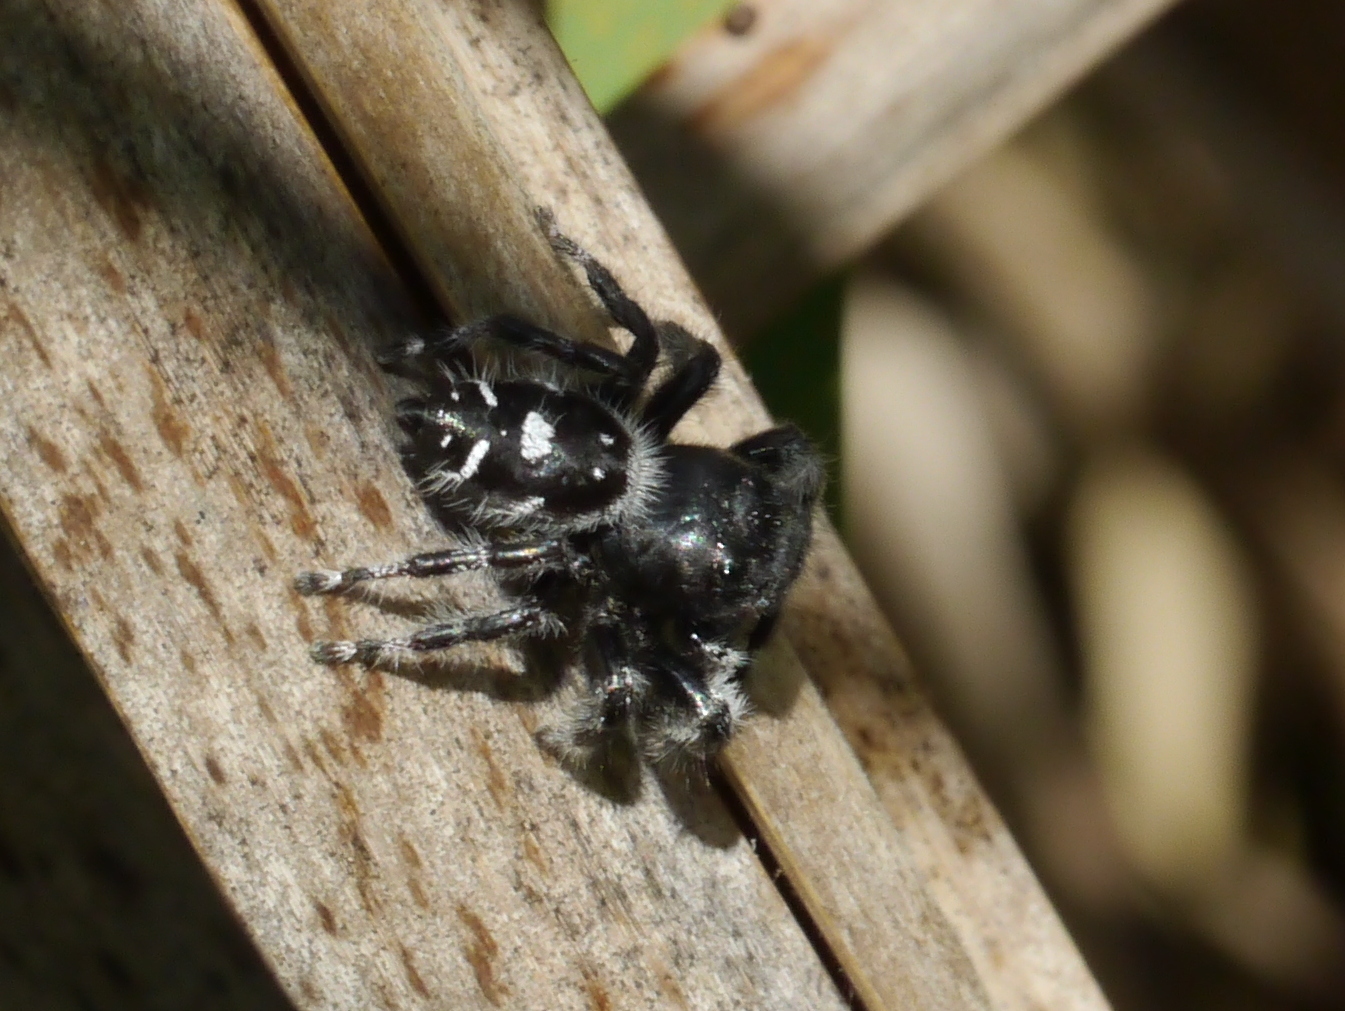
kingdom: Animalia
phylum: Arthropoda
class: Arachnida
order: Araneae
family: Salticidae
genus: Phidippus
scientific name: Phidippus audax
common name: Bold jumper
